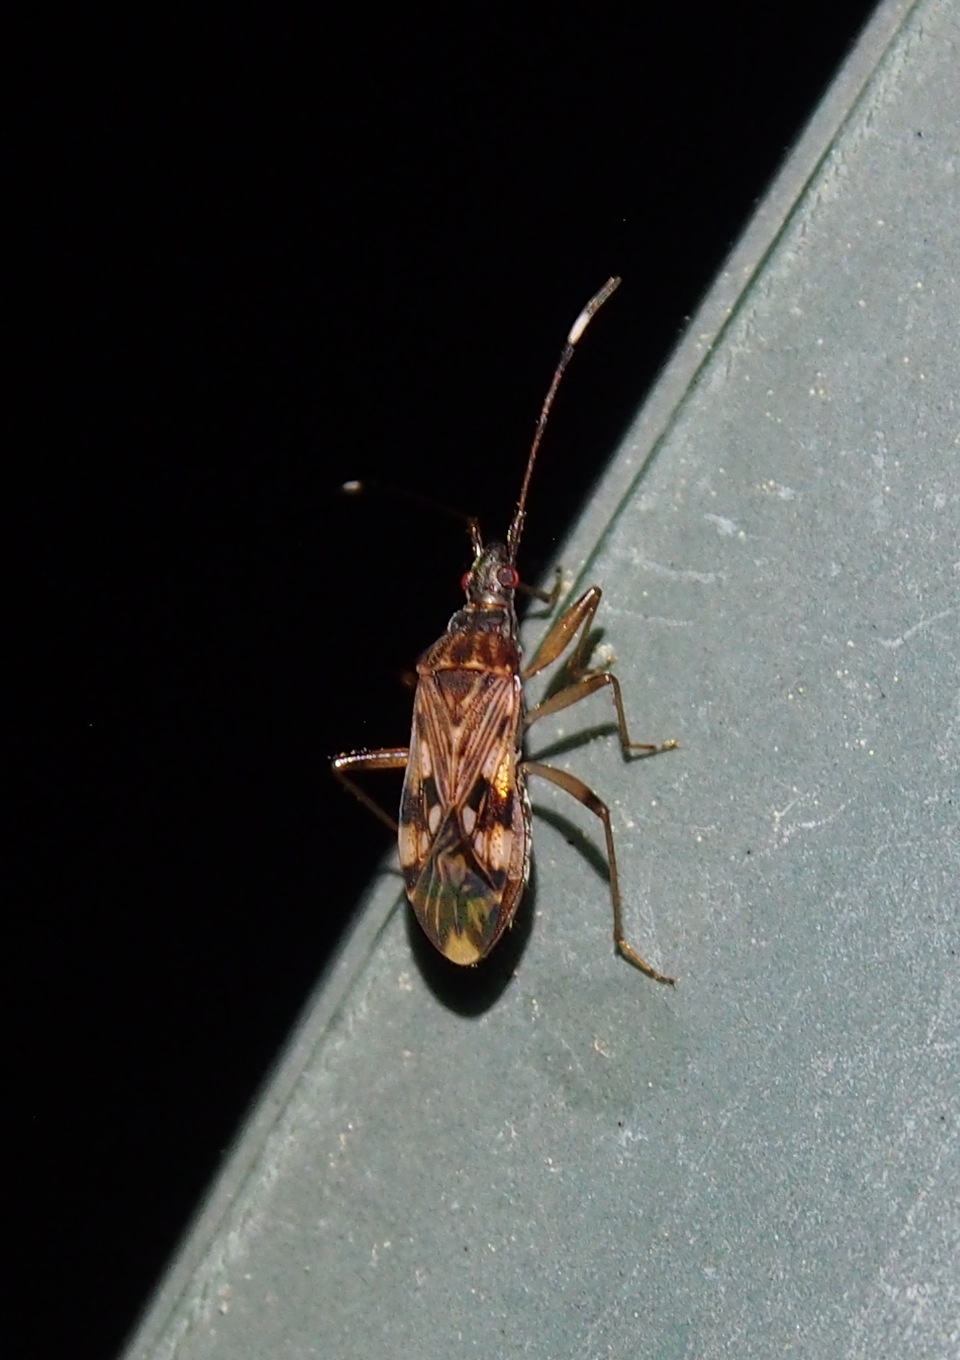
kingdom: Animalia
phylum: Arthropoda
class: Insecta
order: Hemiptera
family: Rhyparochromidae
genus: Ozophora
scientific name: Ozophora picturata
